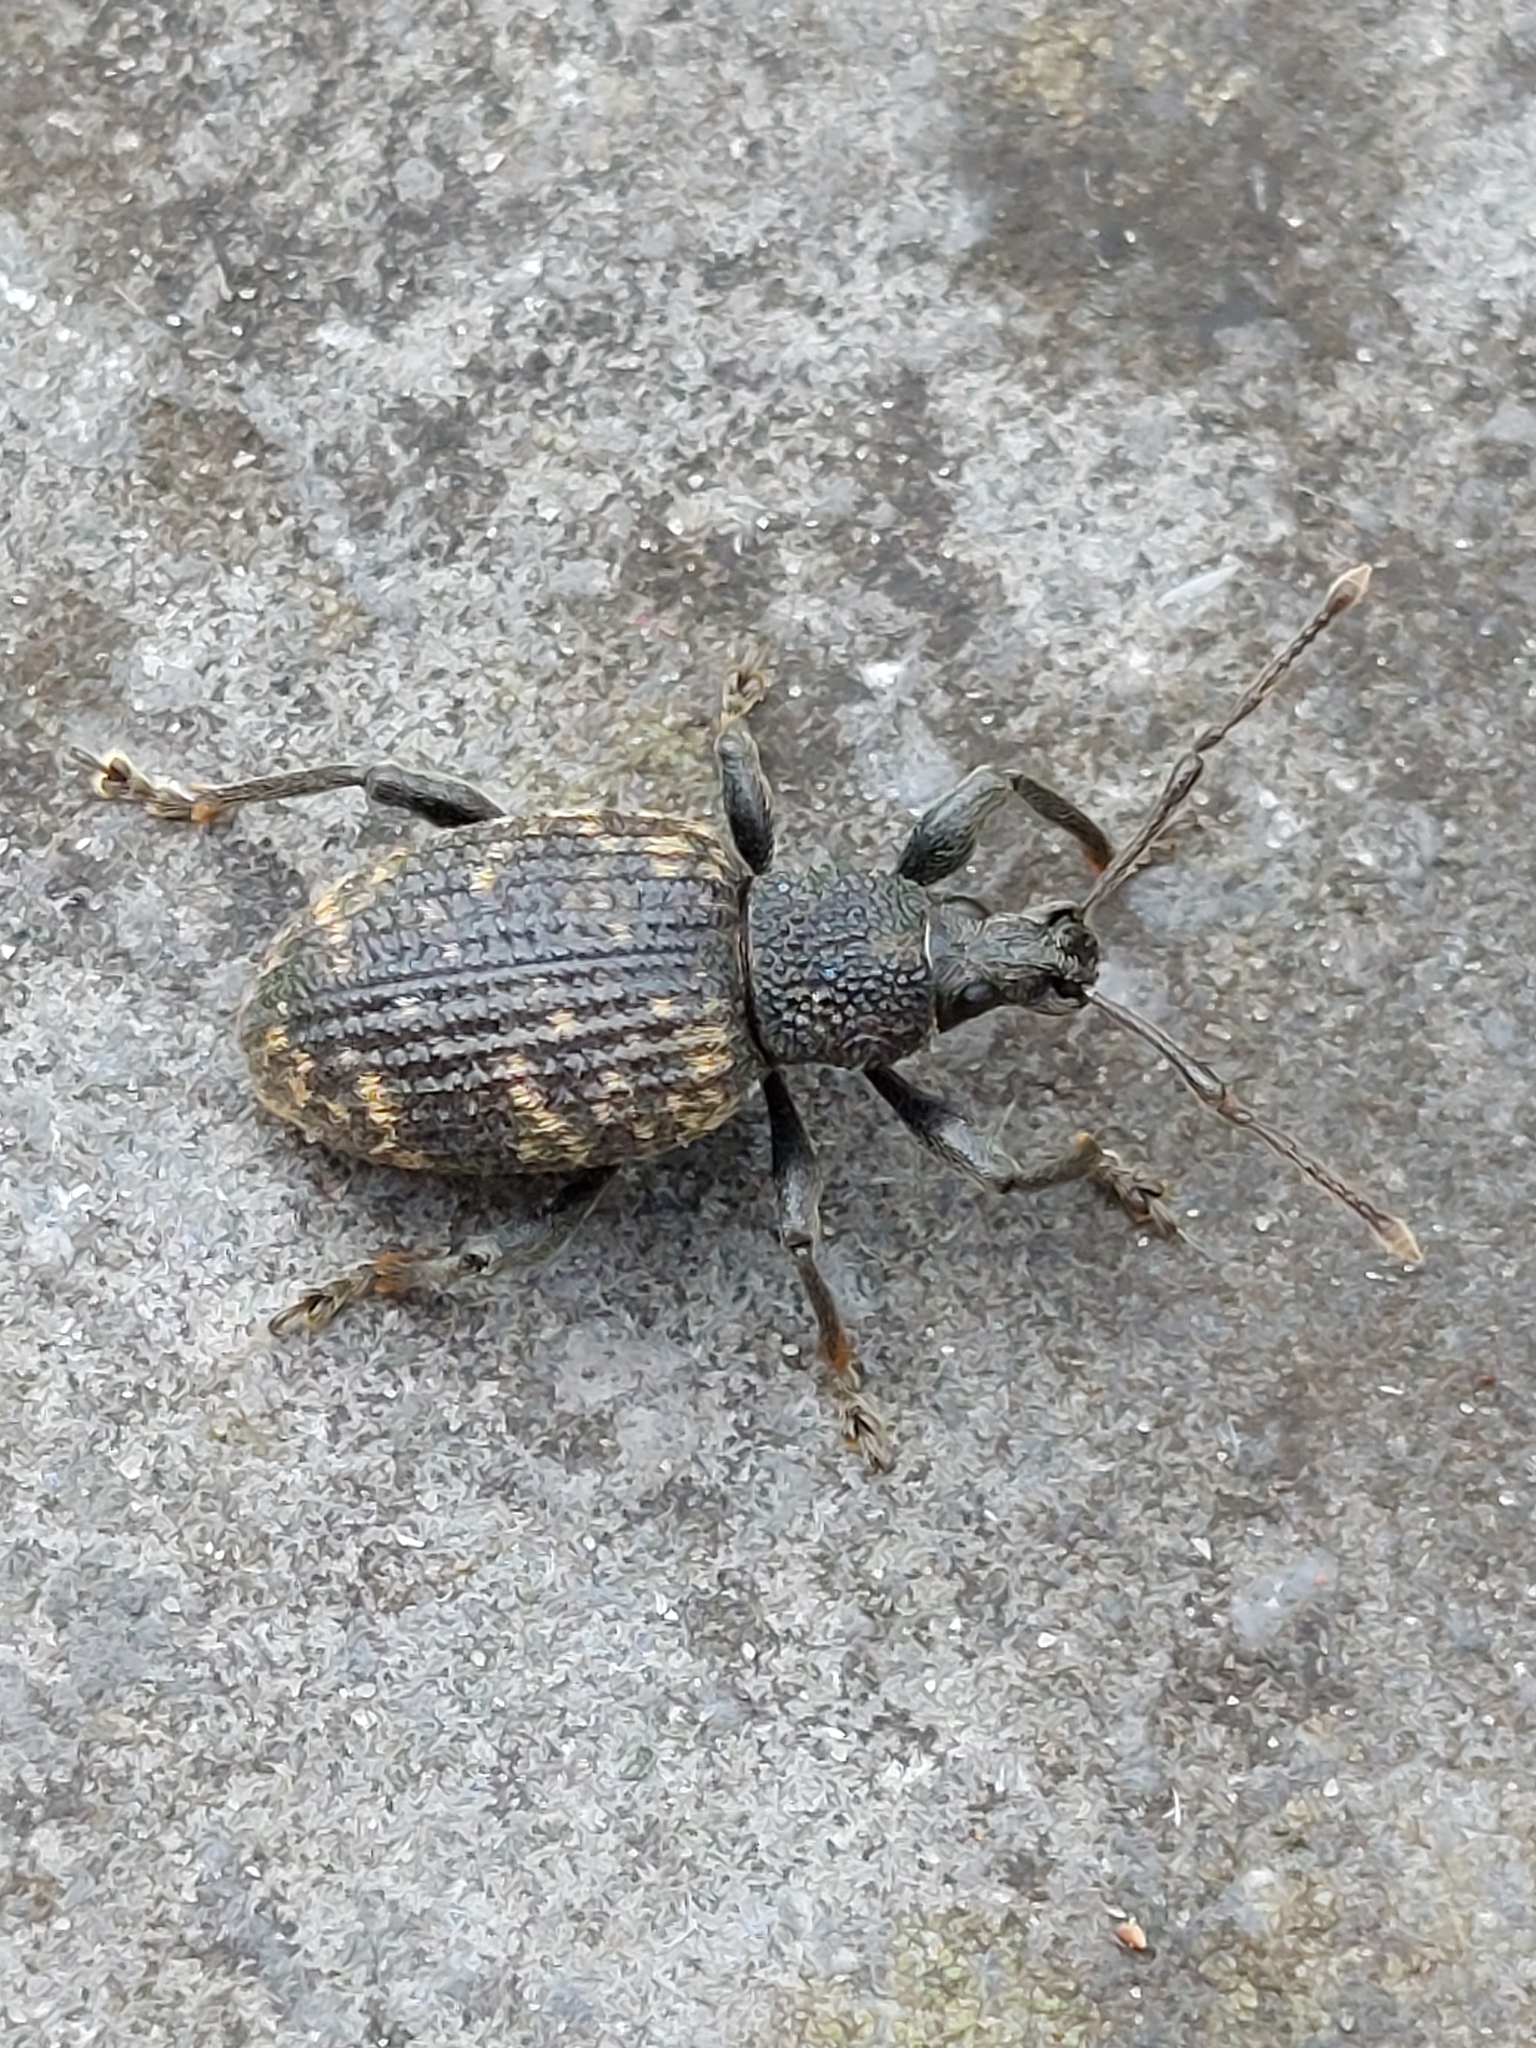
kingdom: Animalia
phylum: Arthropoda
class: Insecta
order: Coleoptera
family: Curculionidae
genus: Otiorhynchus
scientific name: Otiorhynchus sulcatus
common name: Black vine weevil
